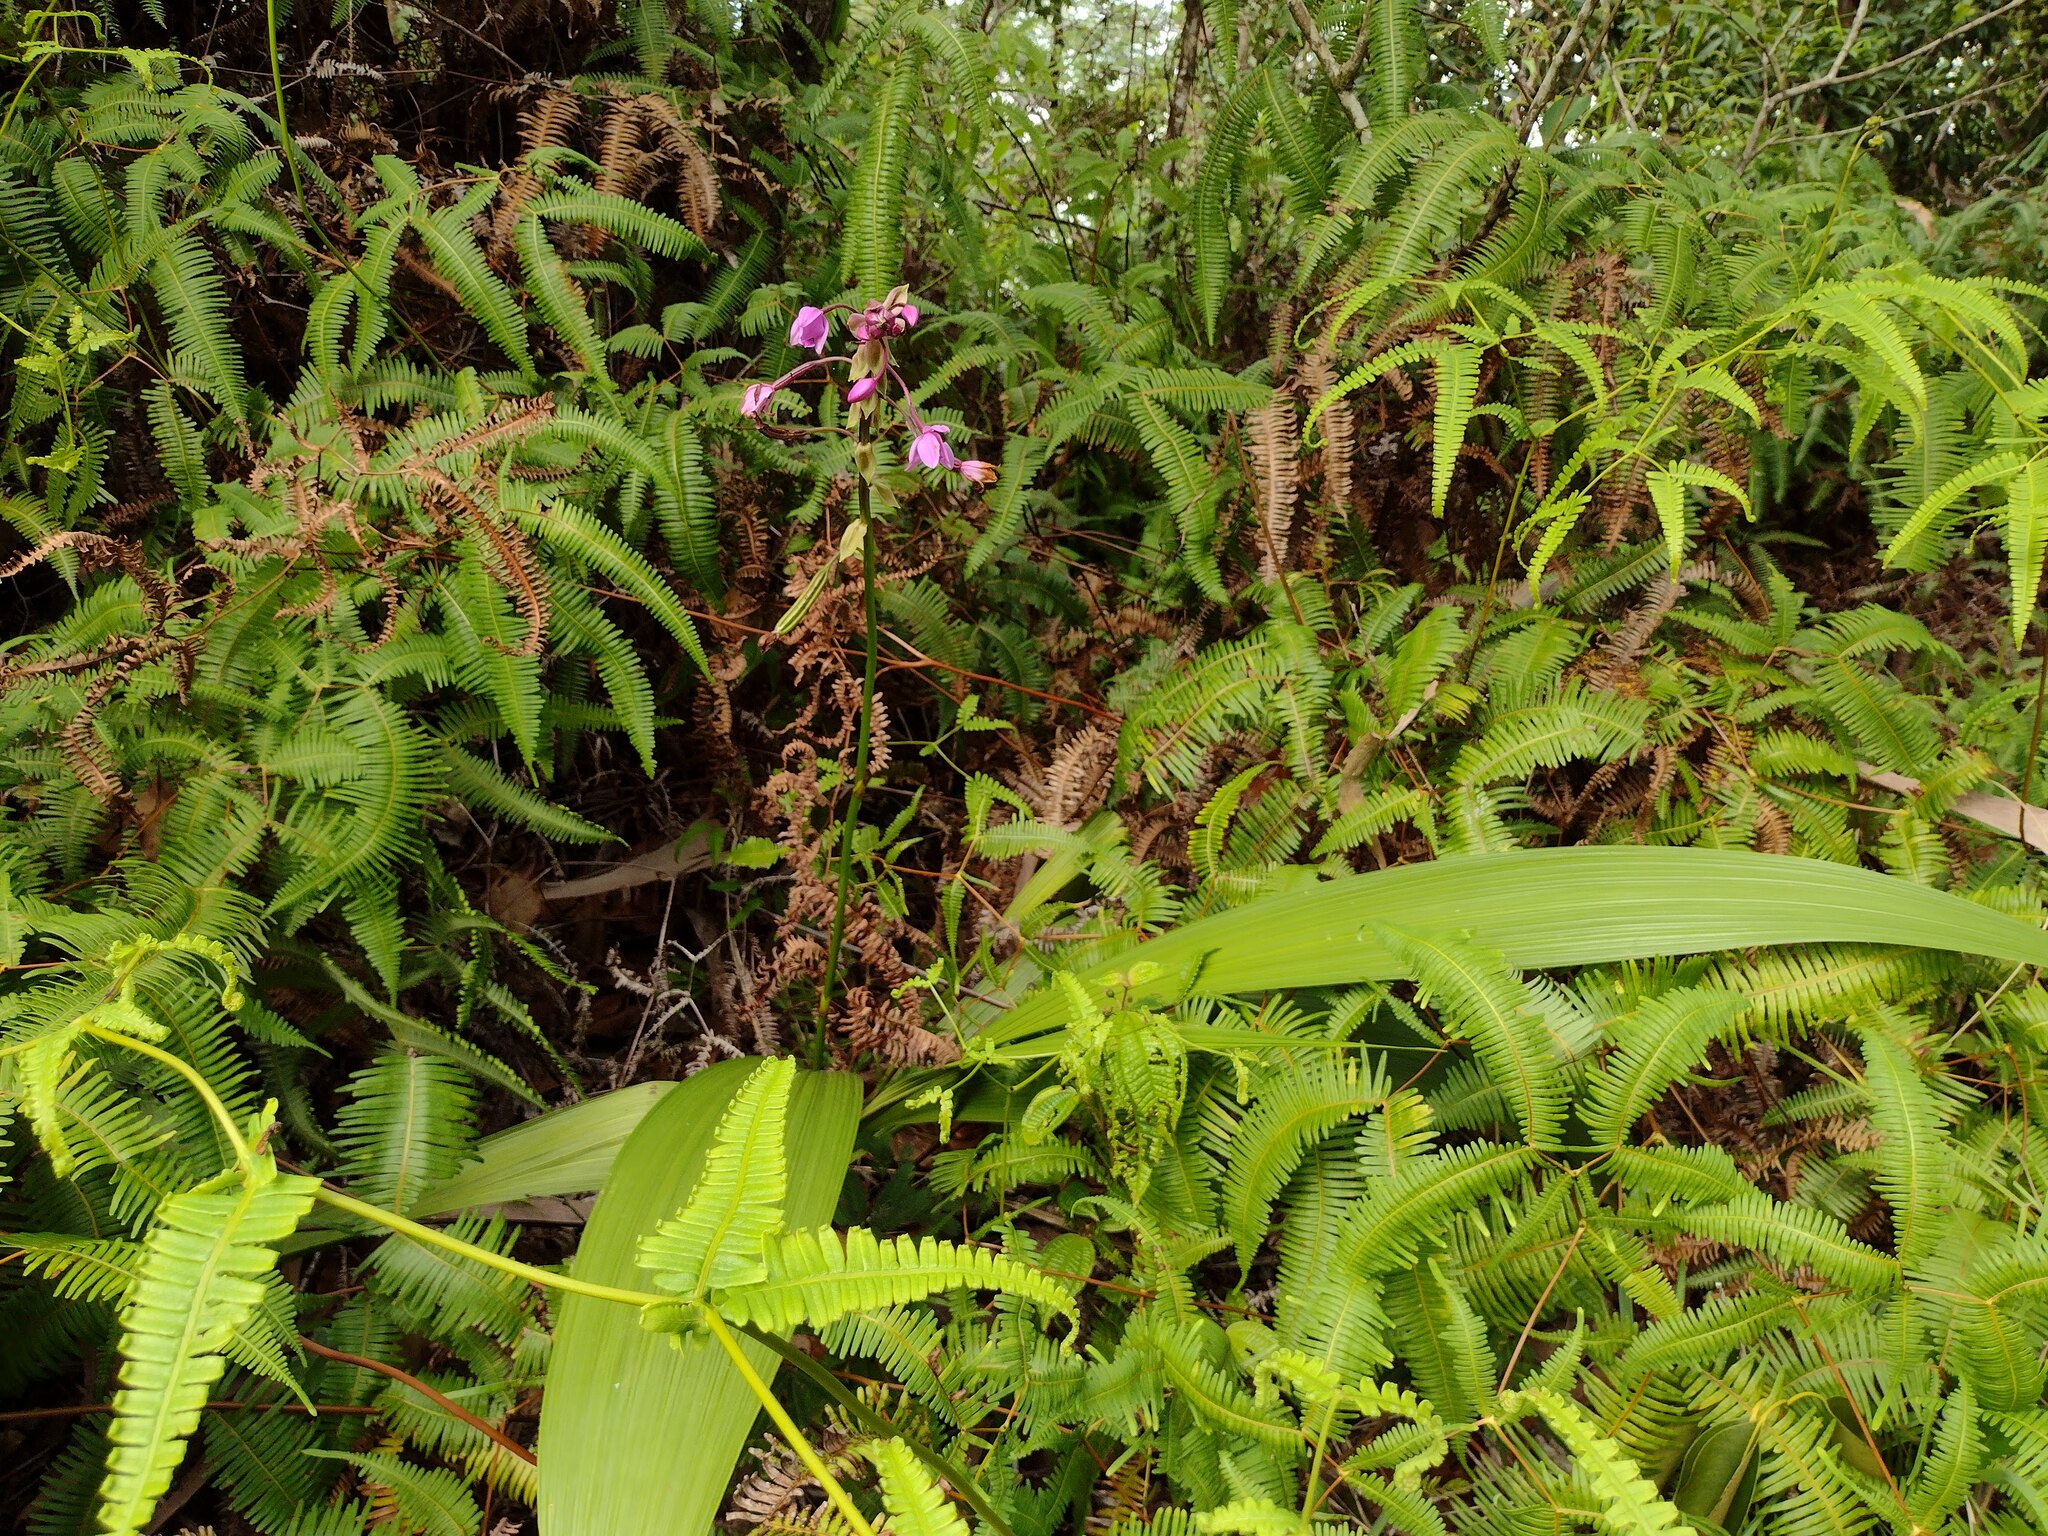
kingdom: Plantae
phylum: Tracheophyta
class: Liliopsida
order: Asparagales
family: Orchidaceae
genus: Spathoglottis
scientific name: Spathoglottis plicata
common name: Philippine ground orchid
